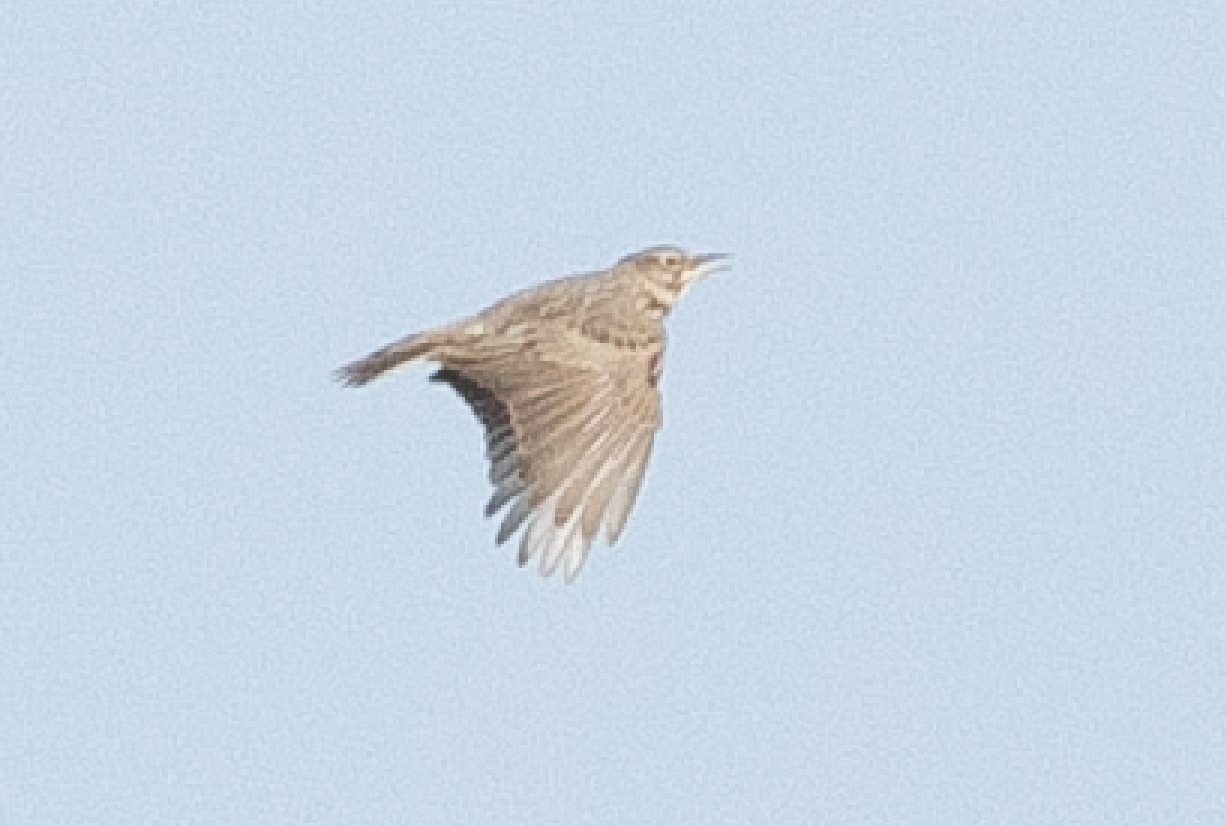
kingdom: Animalia
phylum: Chordata
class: Aves
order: Passeriformes
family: Alaudidae
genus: Galerida
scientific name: Galerida cristata
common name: Crested lark
